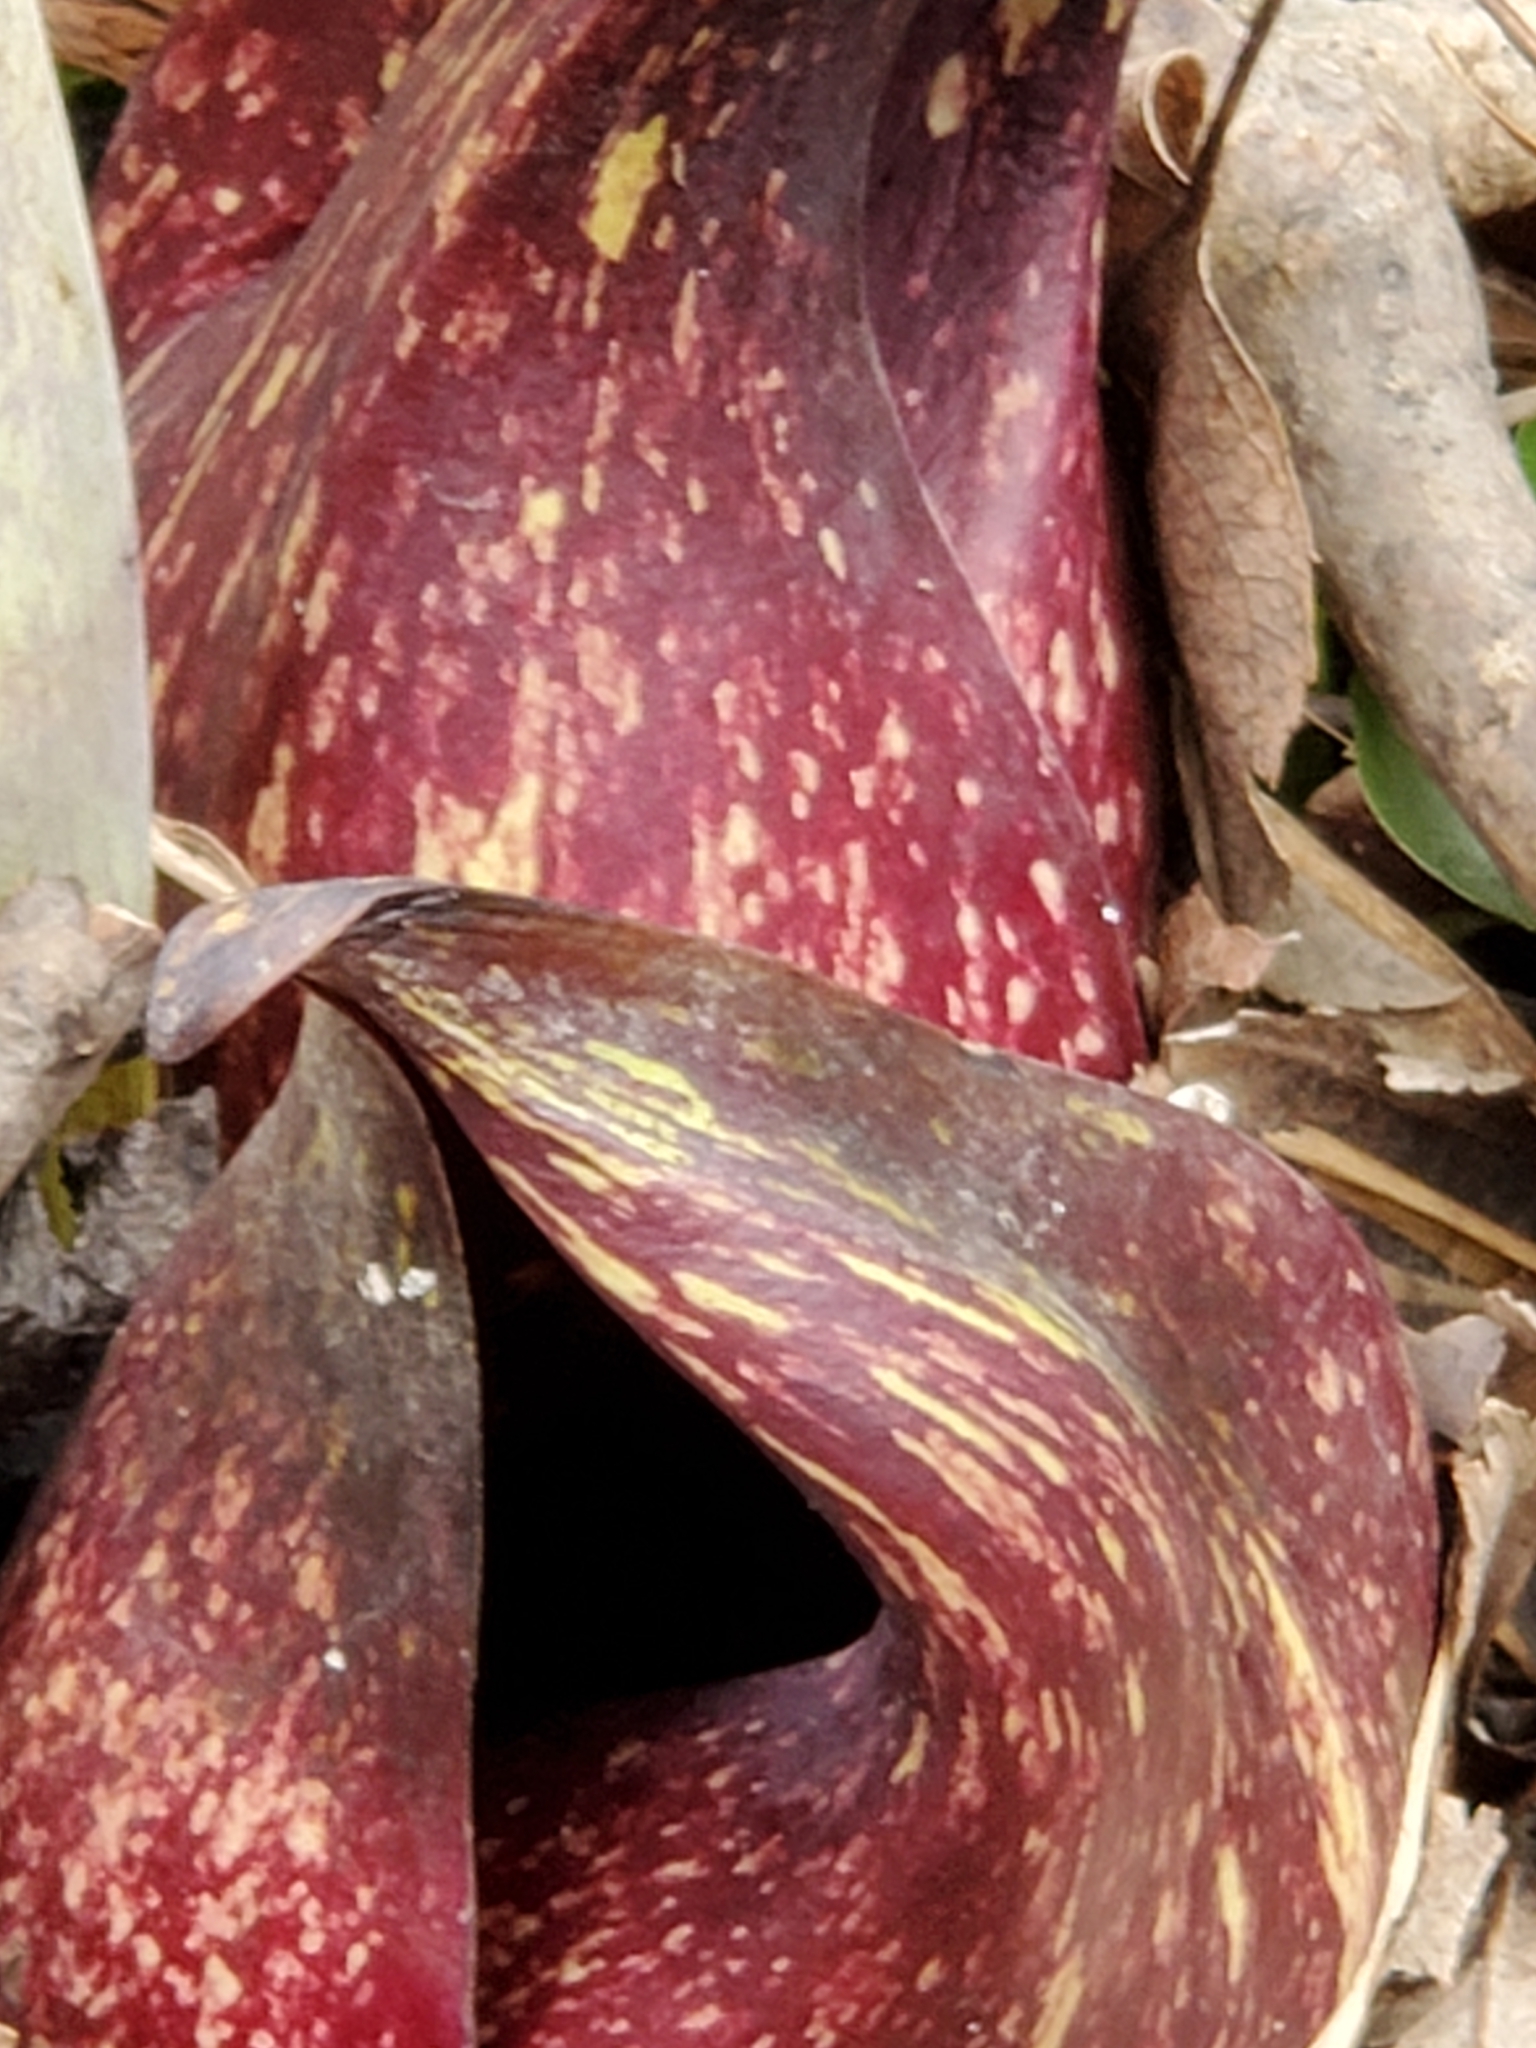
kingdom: Plantae
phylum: Tracheophyta
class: Liliopsida
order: Alismatales
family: Araceae
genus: Symplocarpus
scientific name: Symplocarpus foetidus
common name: Eastern skunk cabbage
